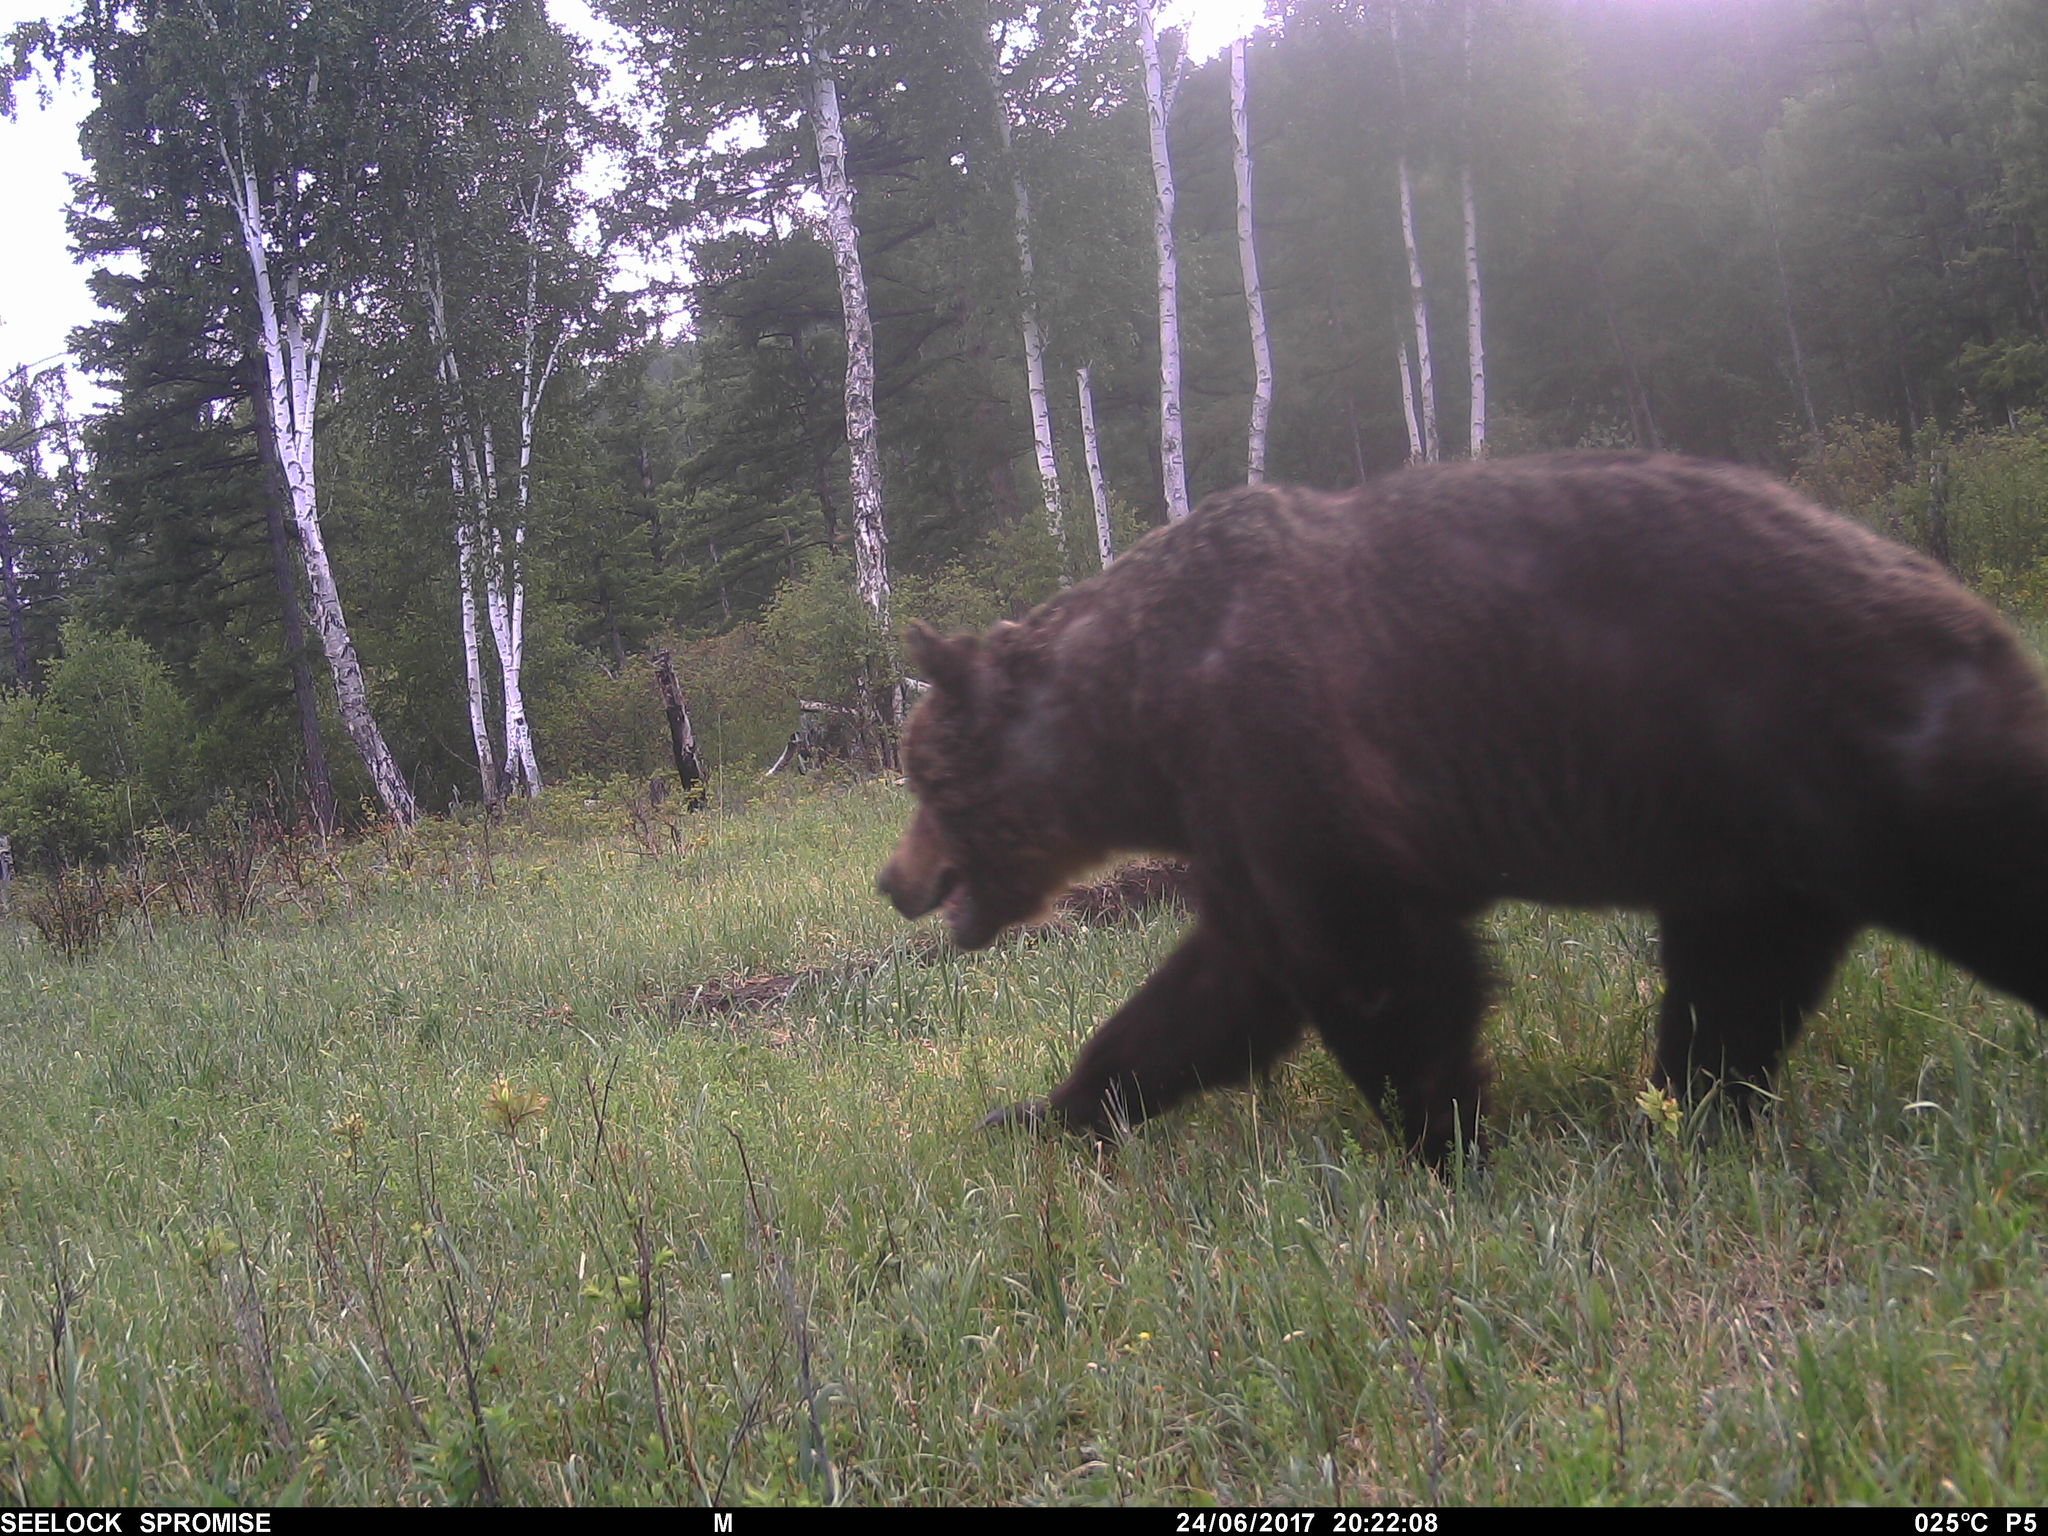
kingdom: Animalia
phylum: Chordata
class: Mammalia
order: Carnivora
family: Ursidae
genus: Ursus
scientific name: Ursus arctos
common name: Brown bear
